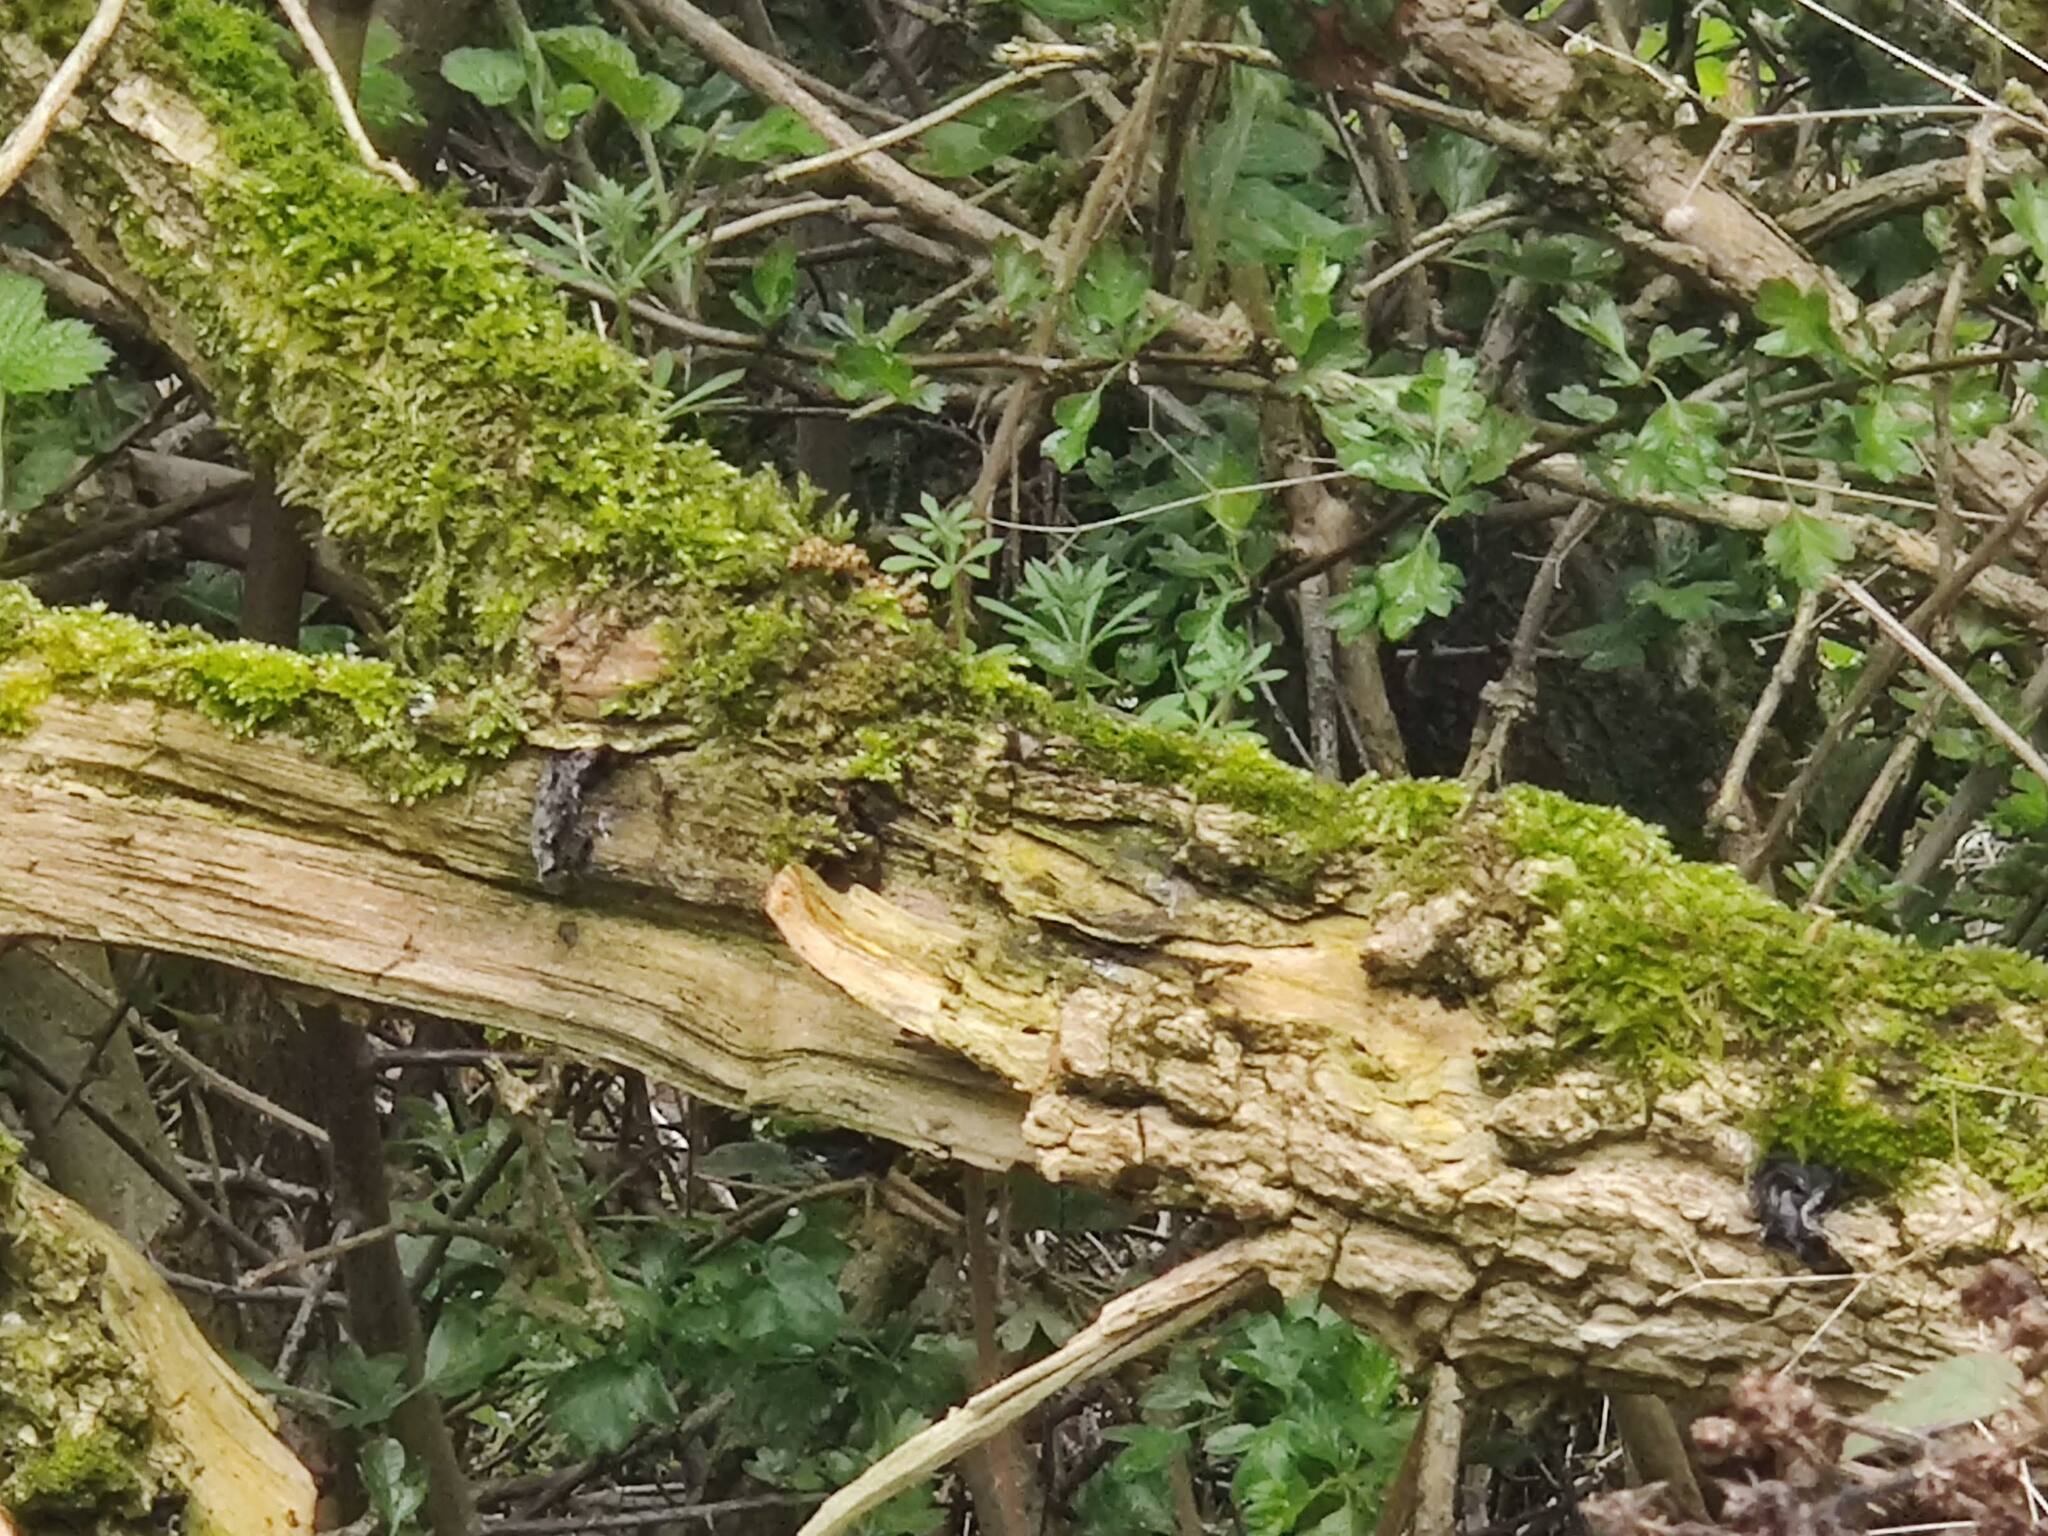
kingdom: Fungi
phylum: Basidiomycota
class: Agaricomycetes
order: Auriculariales
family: Auriculariaceae
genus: Auricularia
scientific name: Auricularia auricula-judae
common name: Jelly ear
